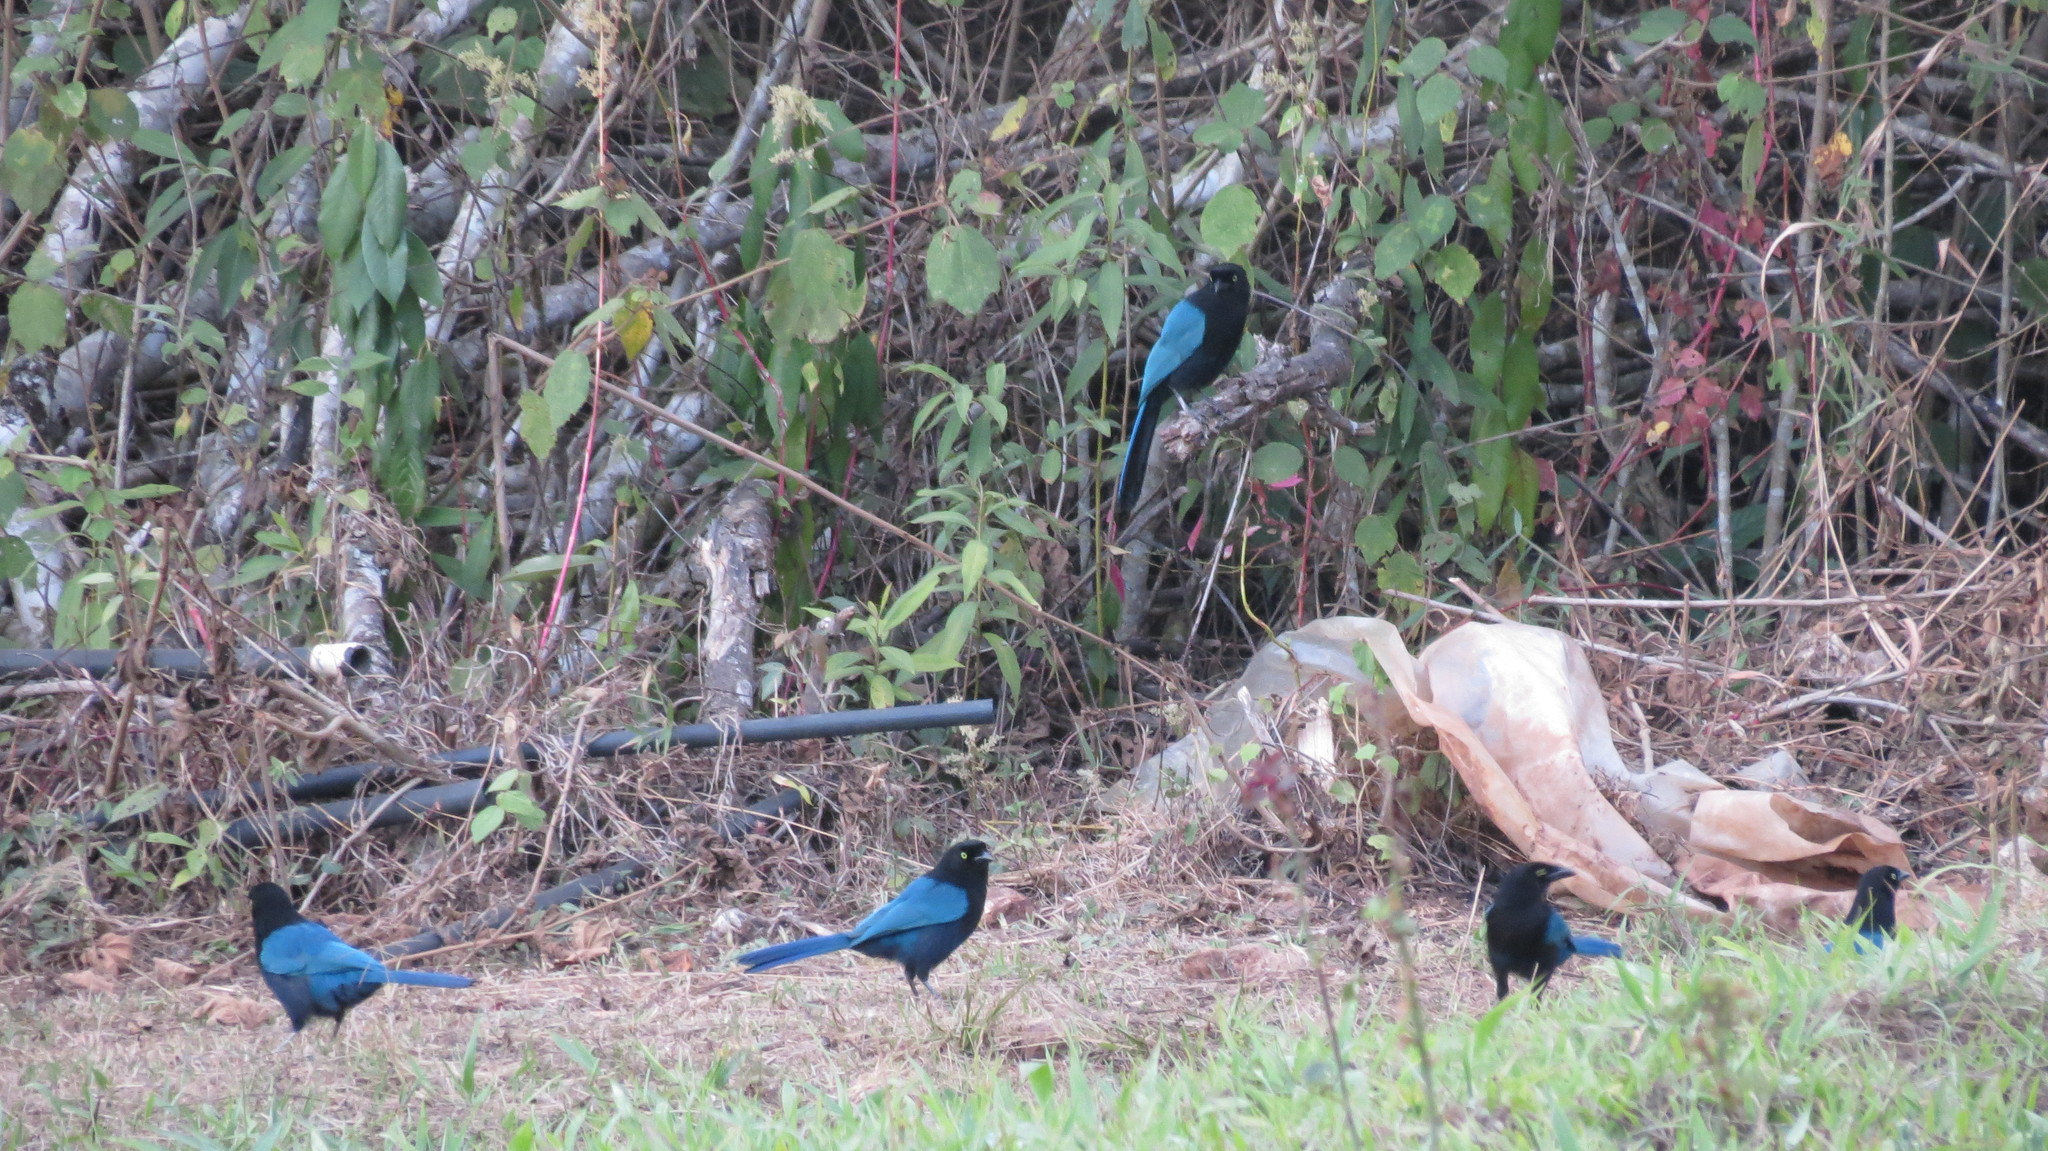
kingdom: Animalia
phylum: Chordata
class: Aves
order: Passeriformes
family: Corvidae
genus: Cyanocorax
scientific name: Cyanocorax melanocyaneus
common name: Bushy-crested jay
